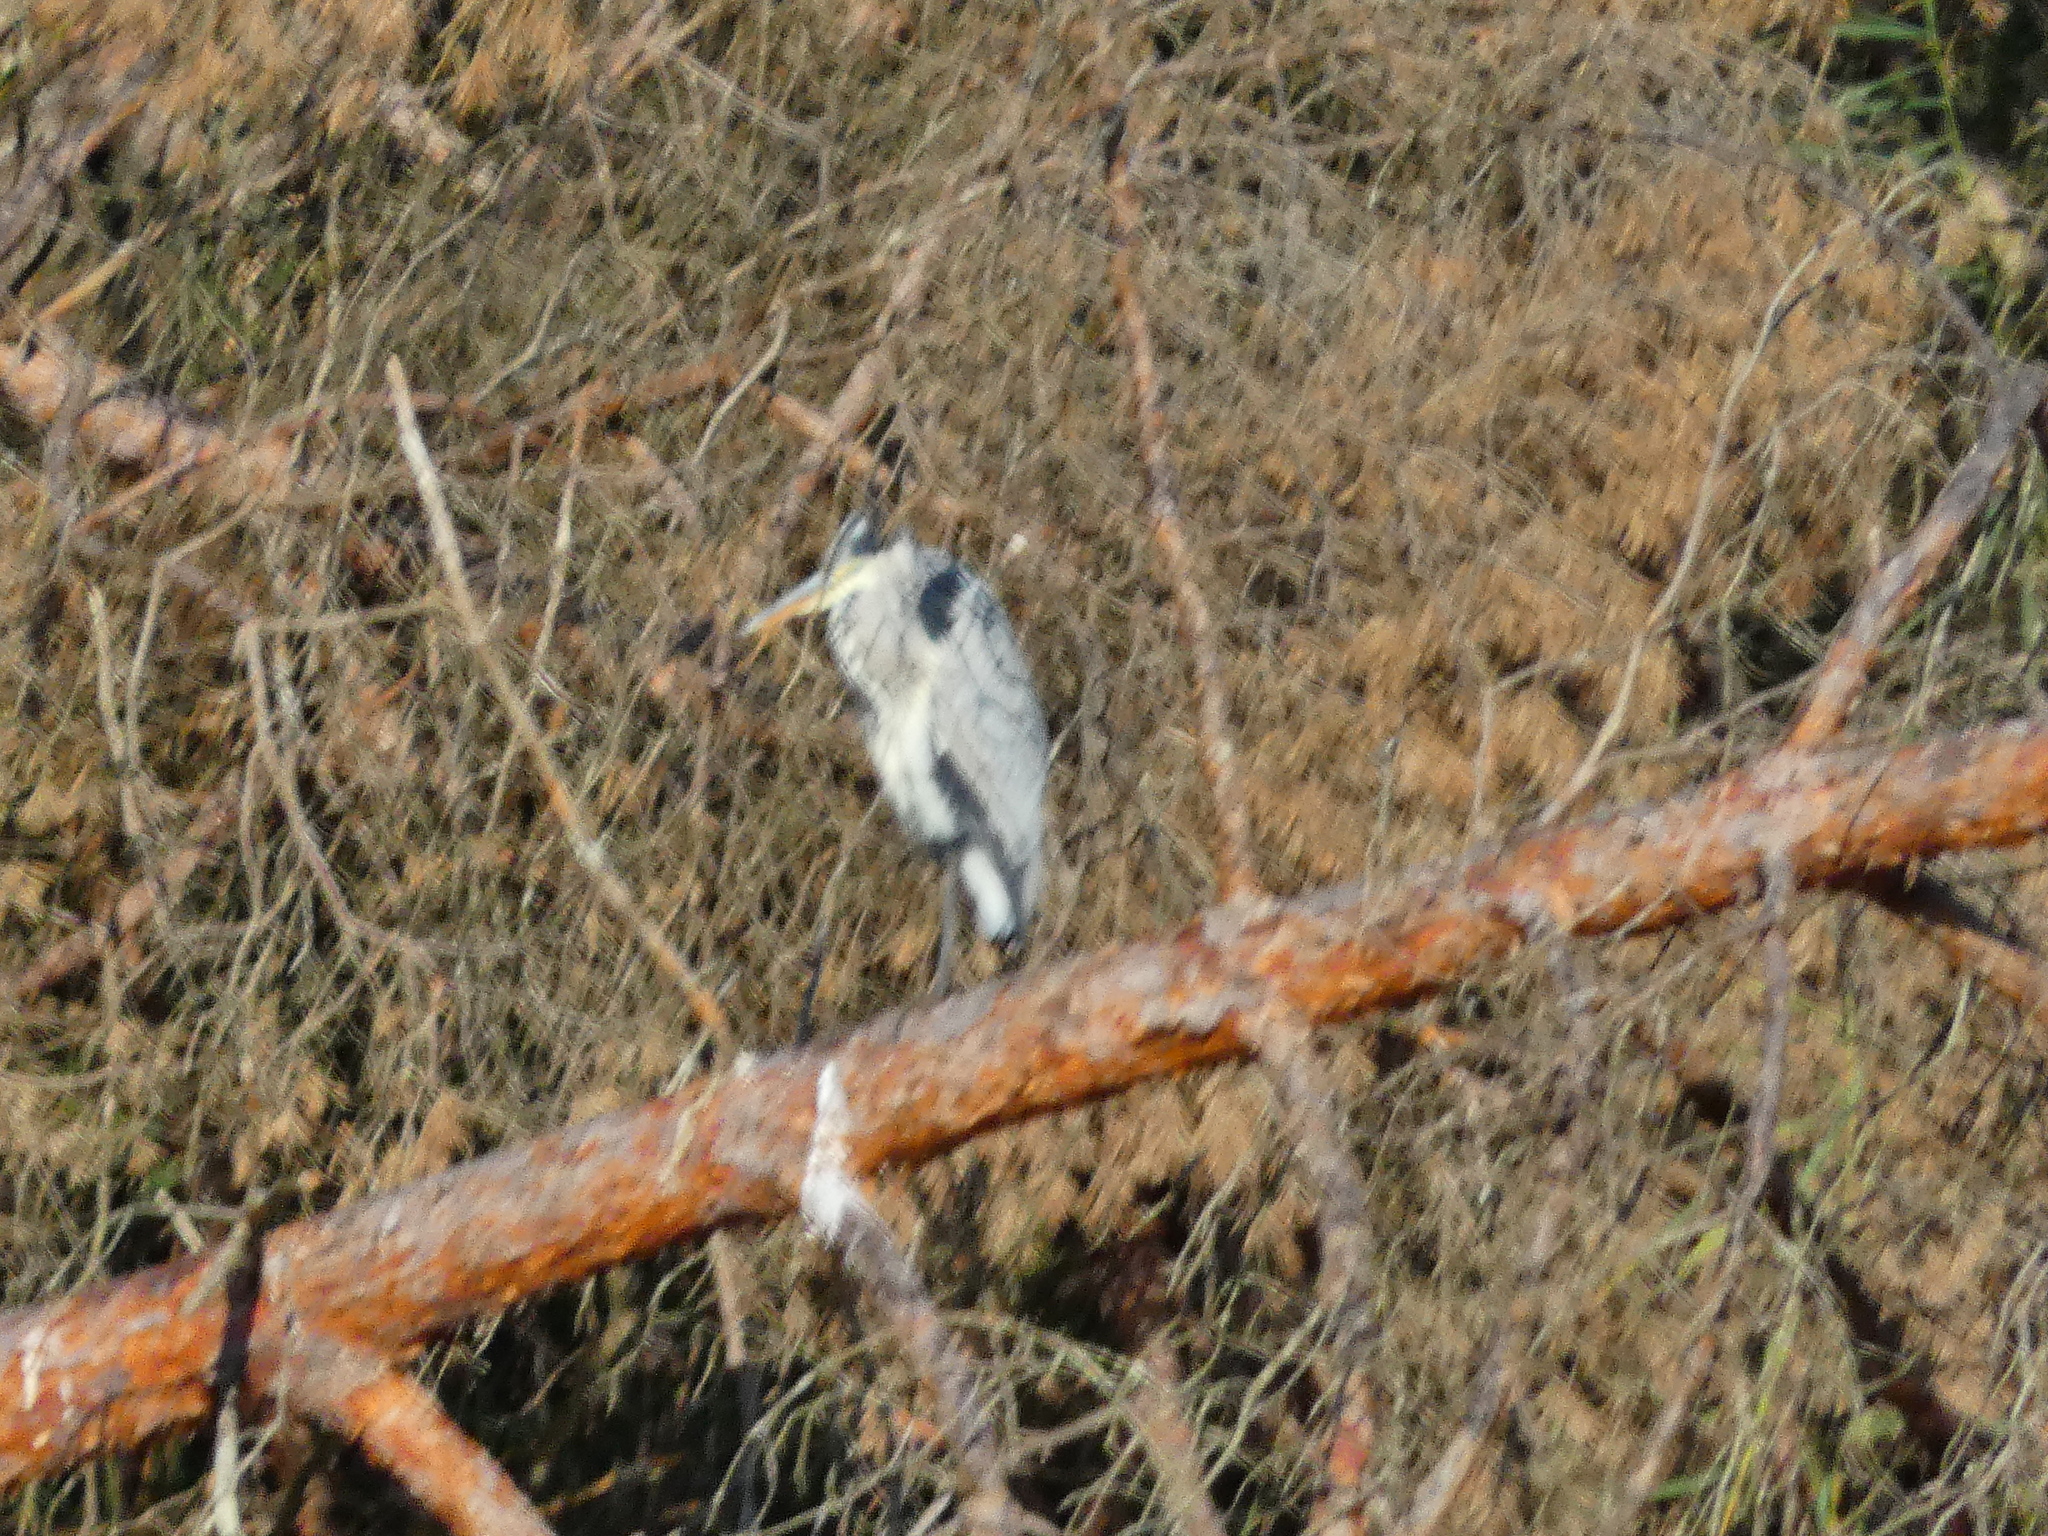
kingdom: Animalia
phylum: Chordata
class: Aves
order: Pelecaniformes
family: Ardeidae
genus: Ardea
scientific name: Ardea cinerea
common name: Grey heron
